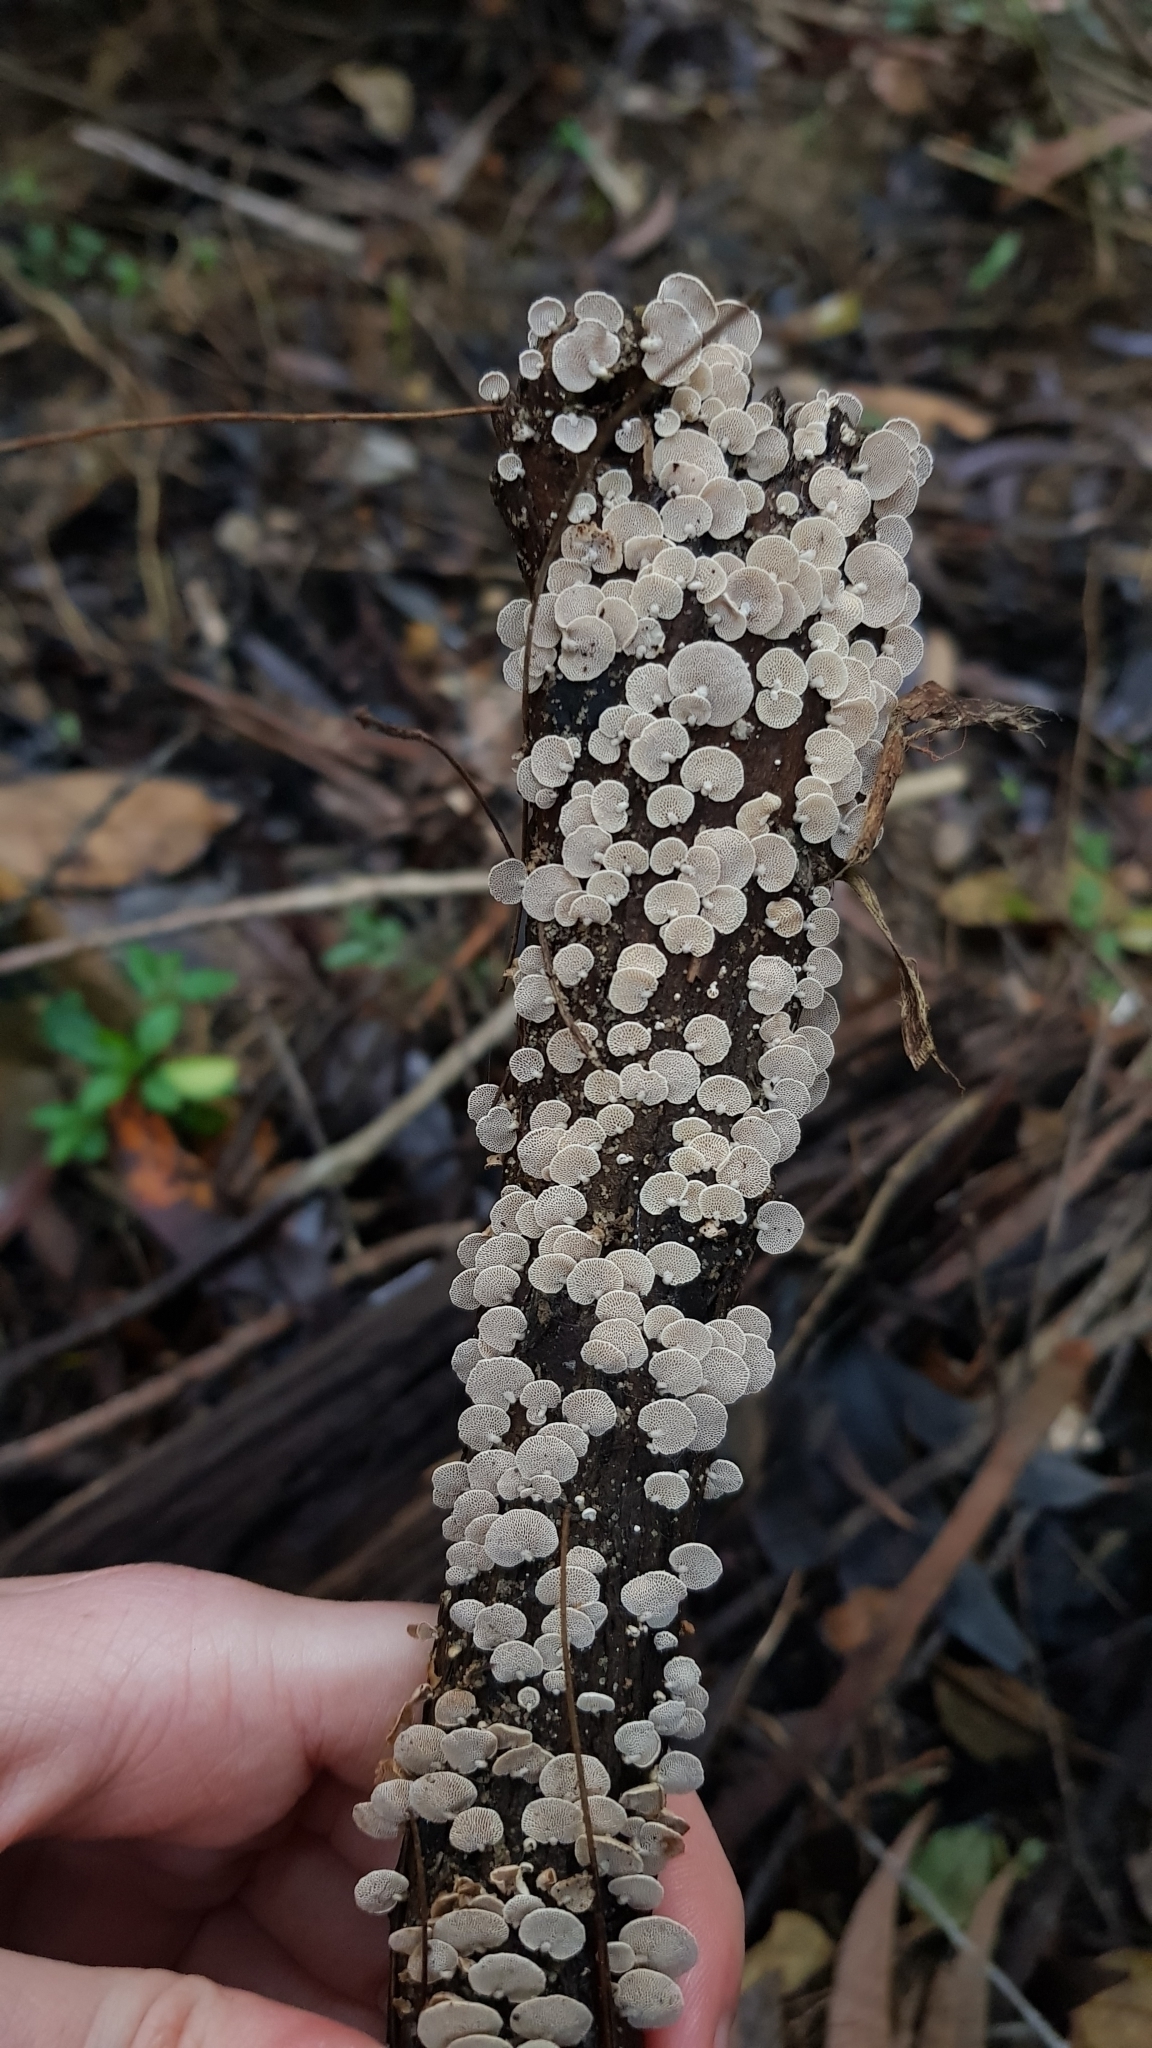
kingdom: Fungi
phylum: Basidiomycota
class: Agaricomycetes
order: Agaricales
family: Mycenaceae
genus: Panellus
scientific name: Panellus luxfilamentus
